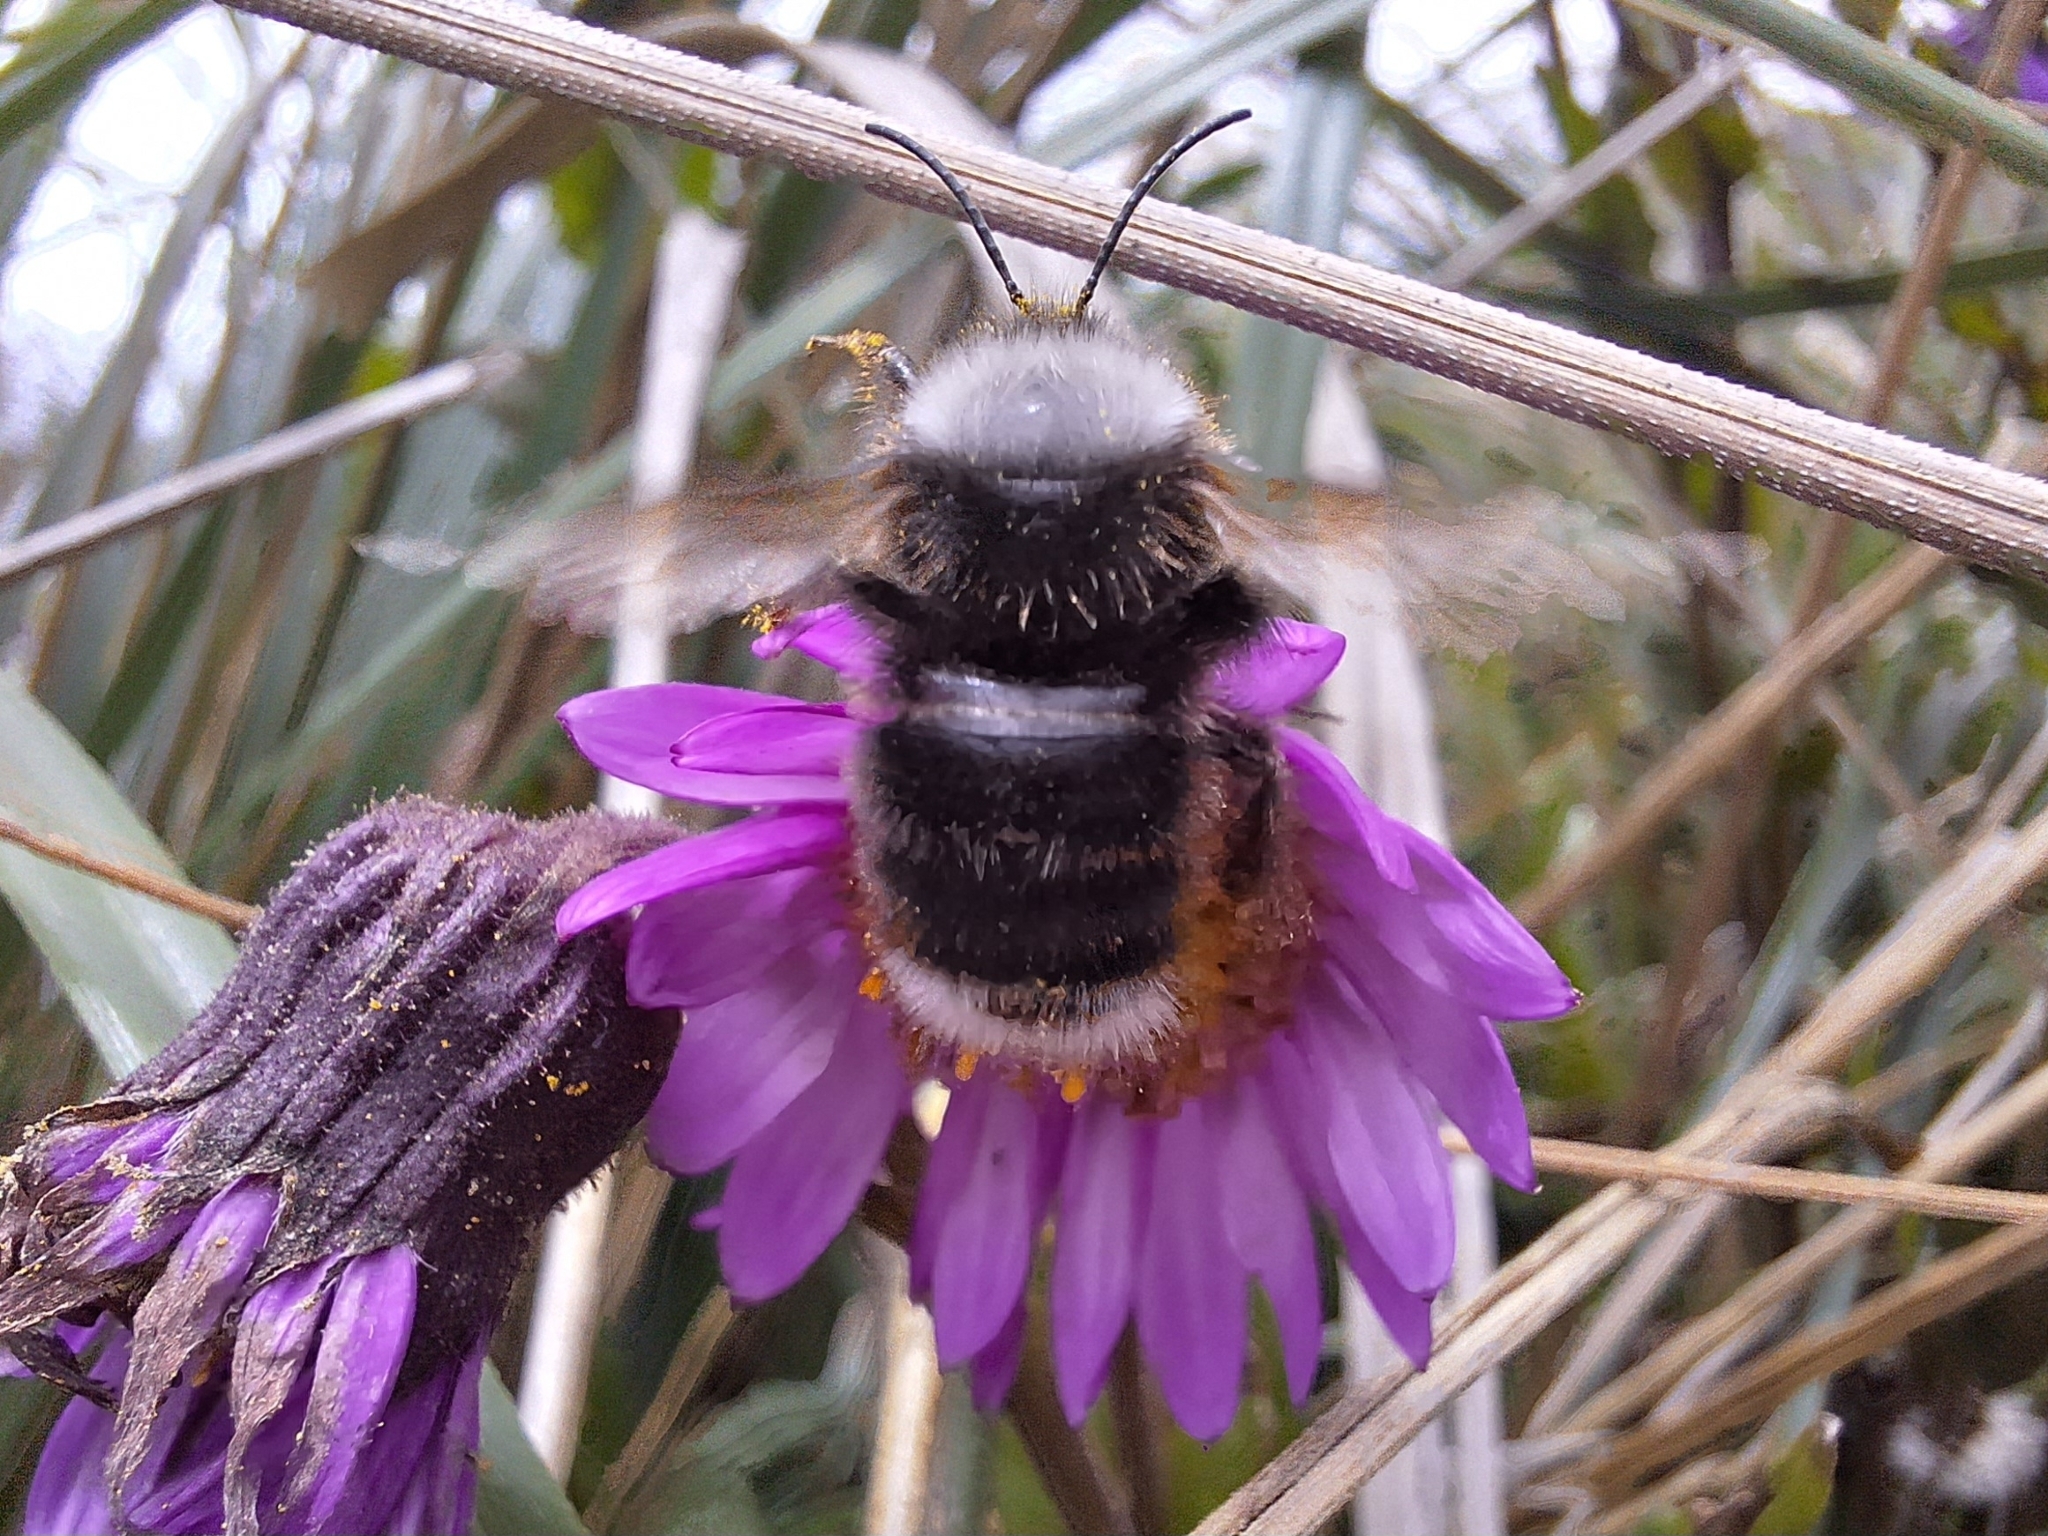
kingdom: Animalia
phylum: Arthropoda
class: Insecta
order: Hymenoptera
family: Apidae
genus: Bombus
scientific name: Bombus funebris
